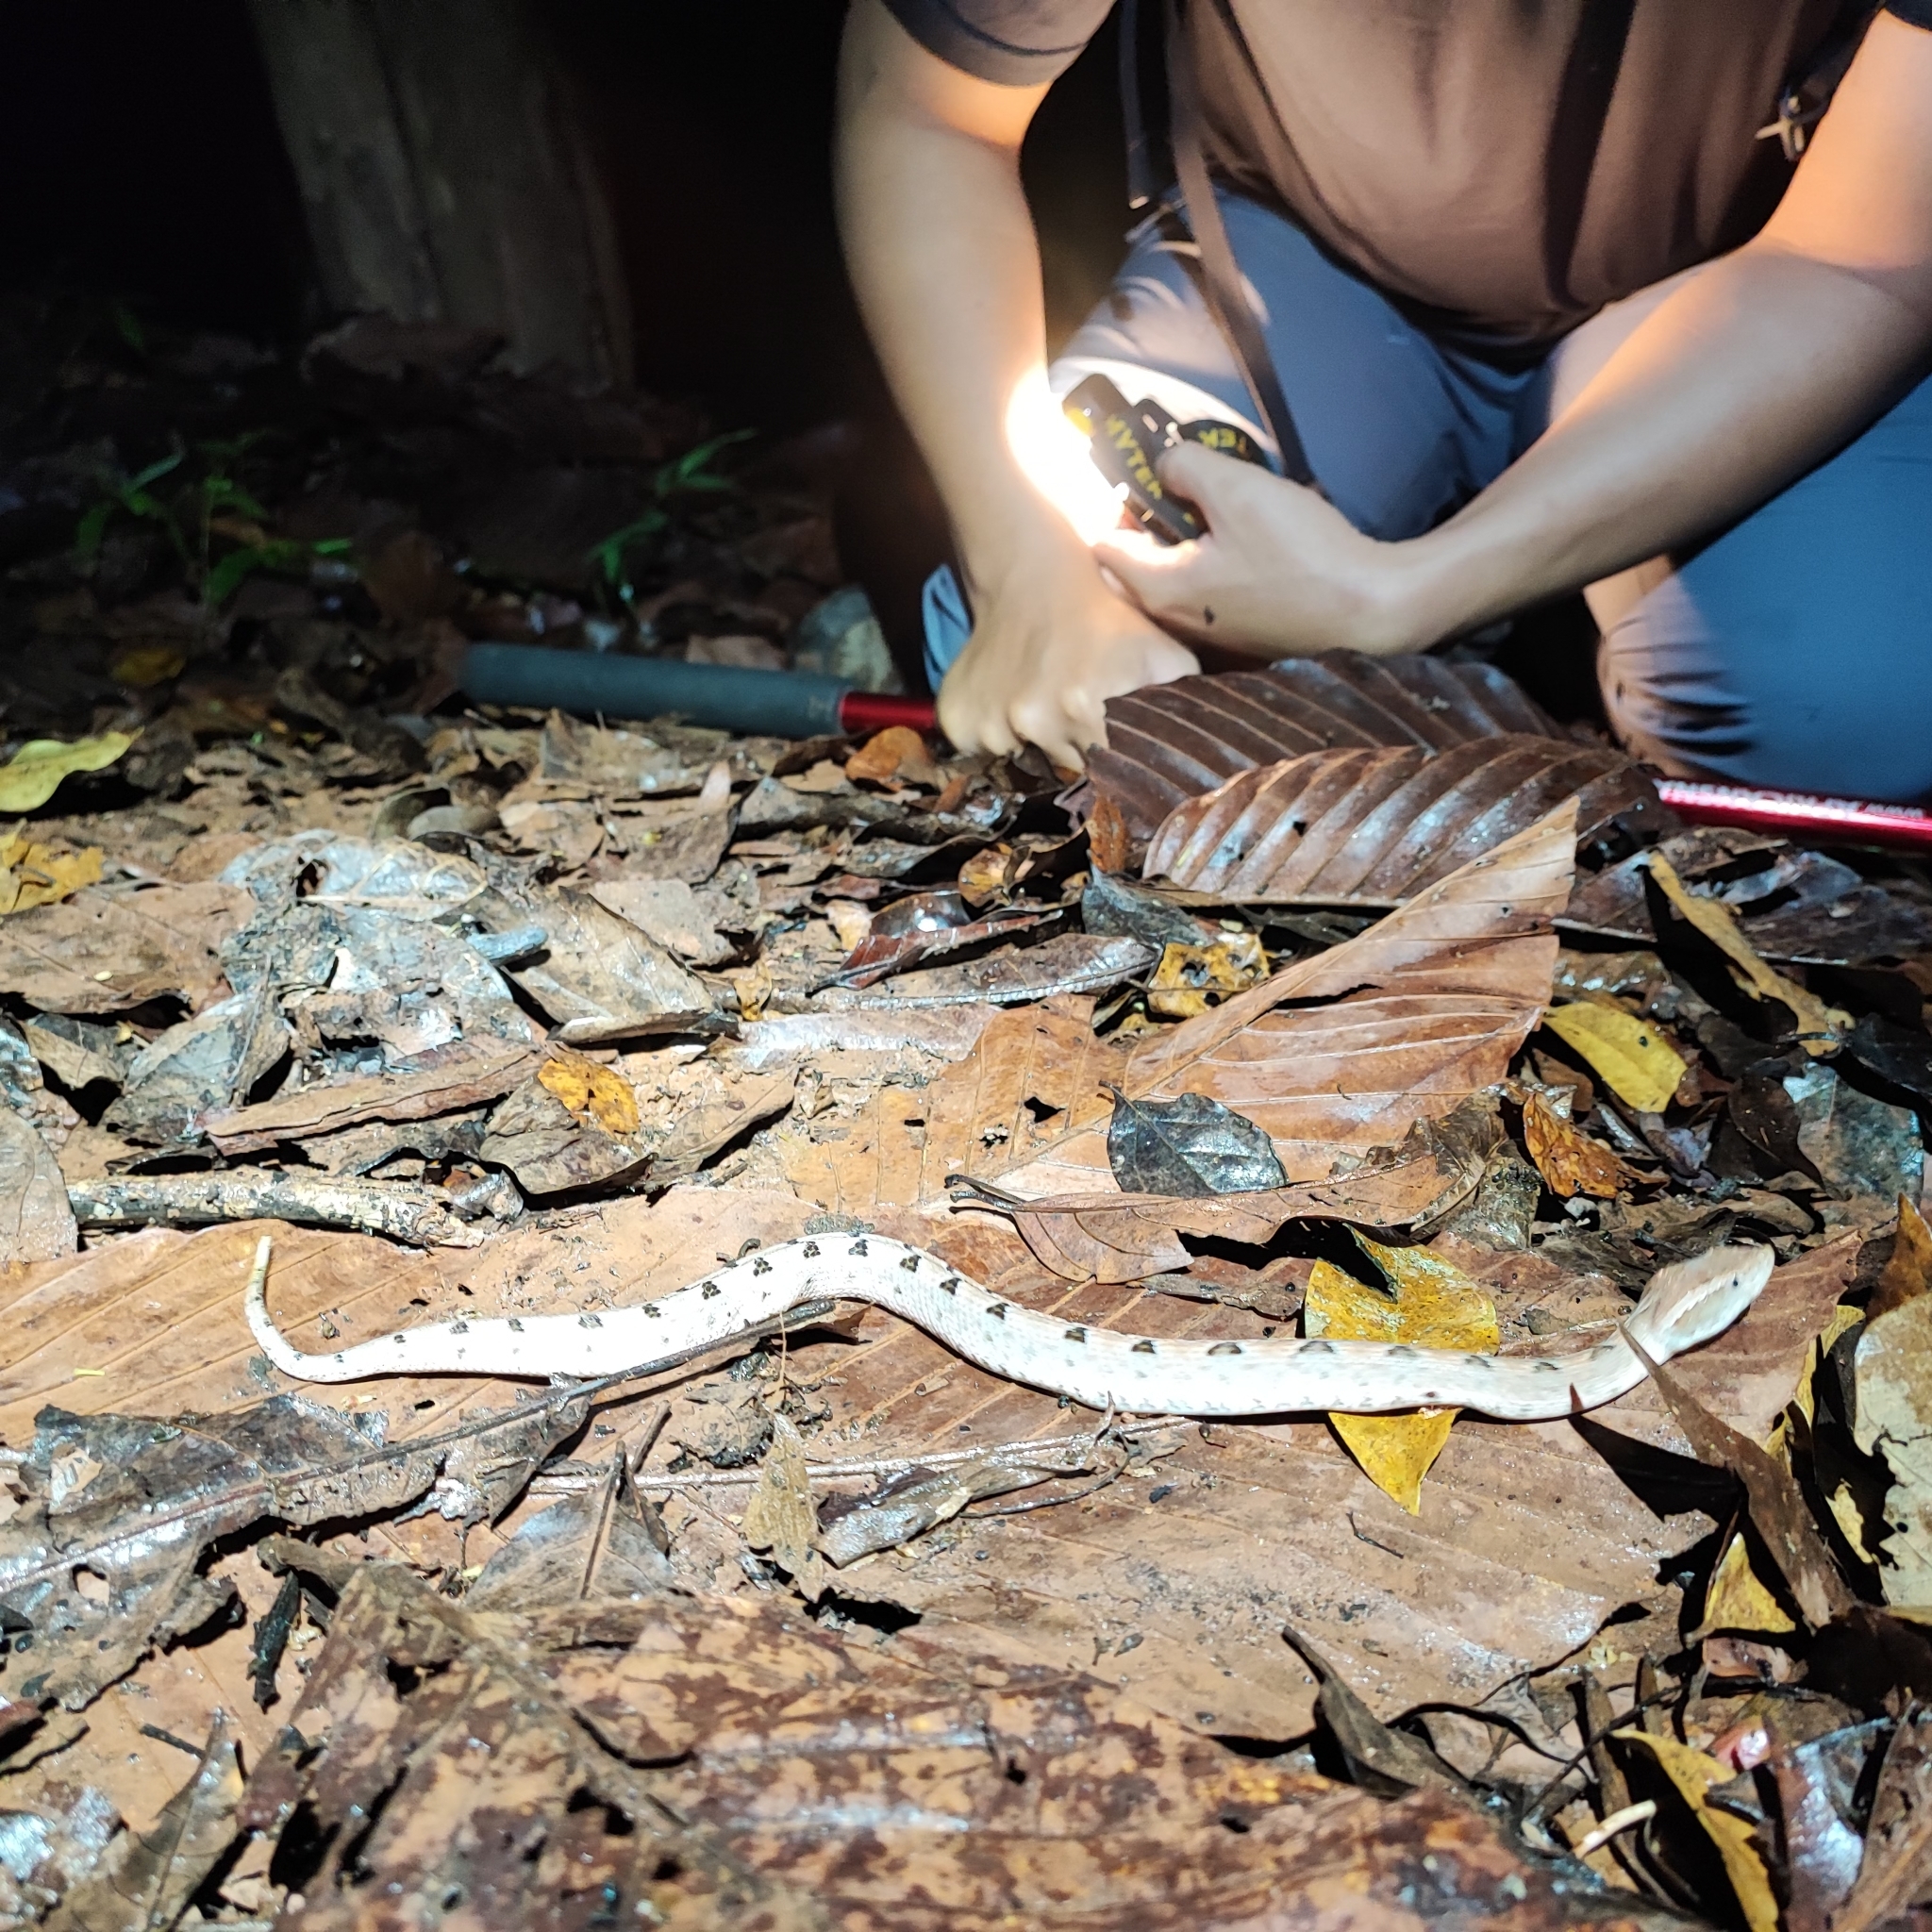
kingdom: Animalia
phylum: Chordata
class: Squamata
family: Viperidae
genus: Calloselasma
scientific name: Calloselasma rhodostoma
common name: Malayan pit viper
